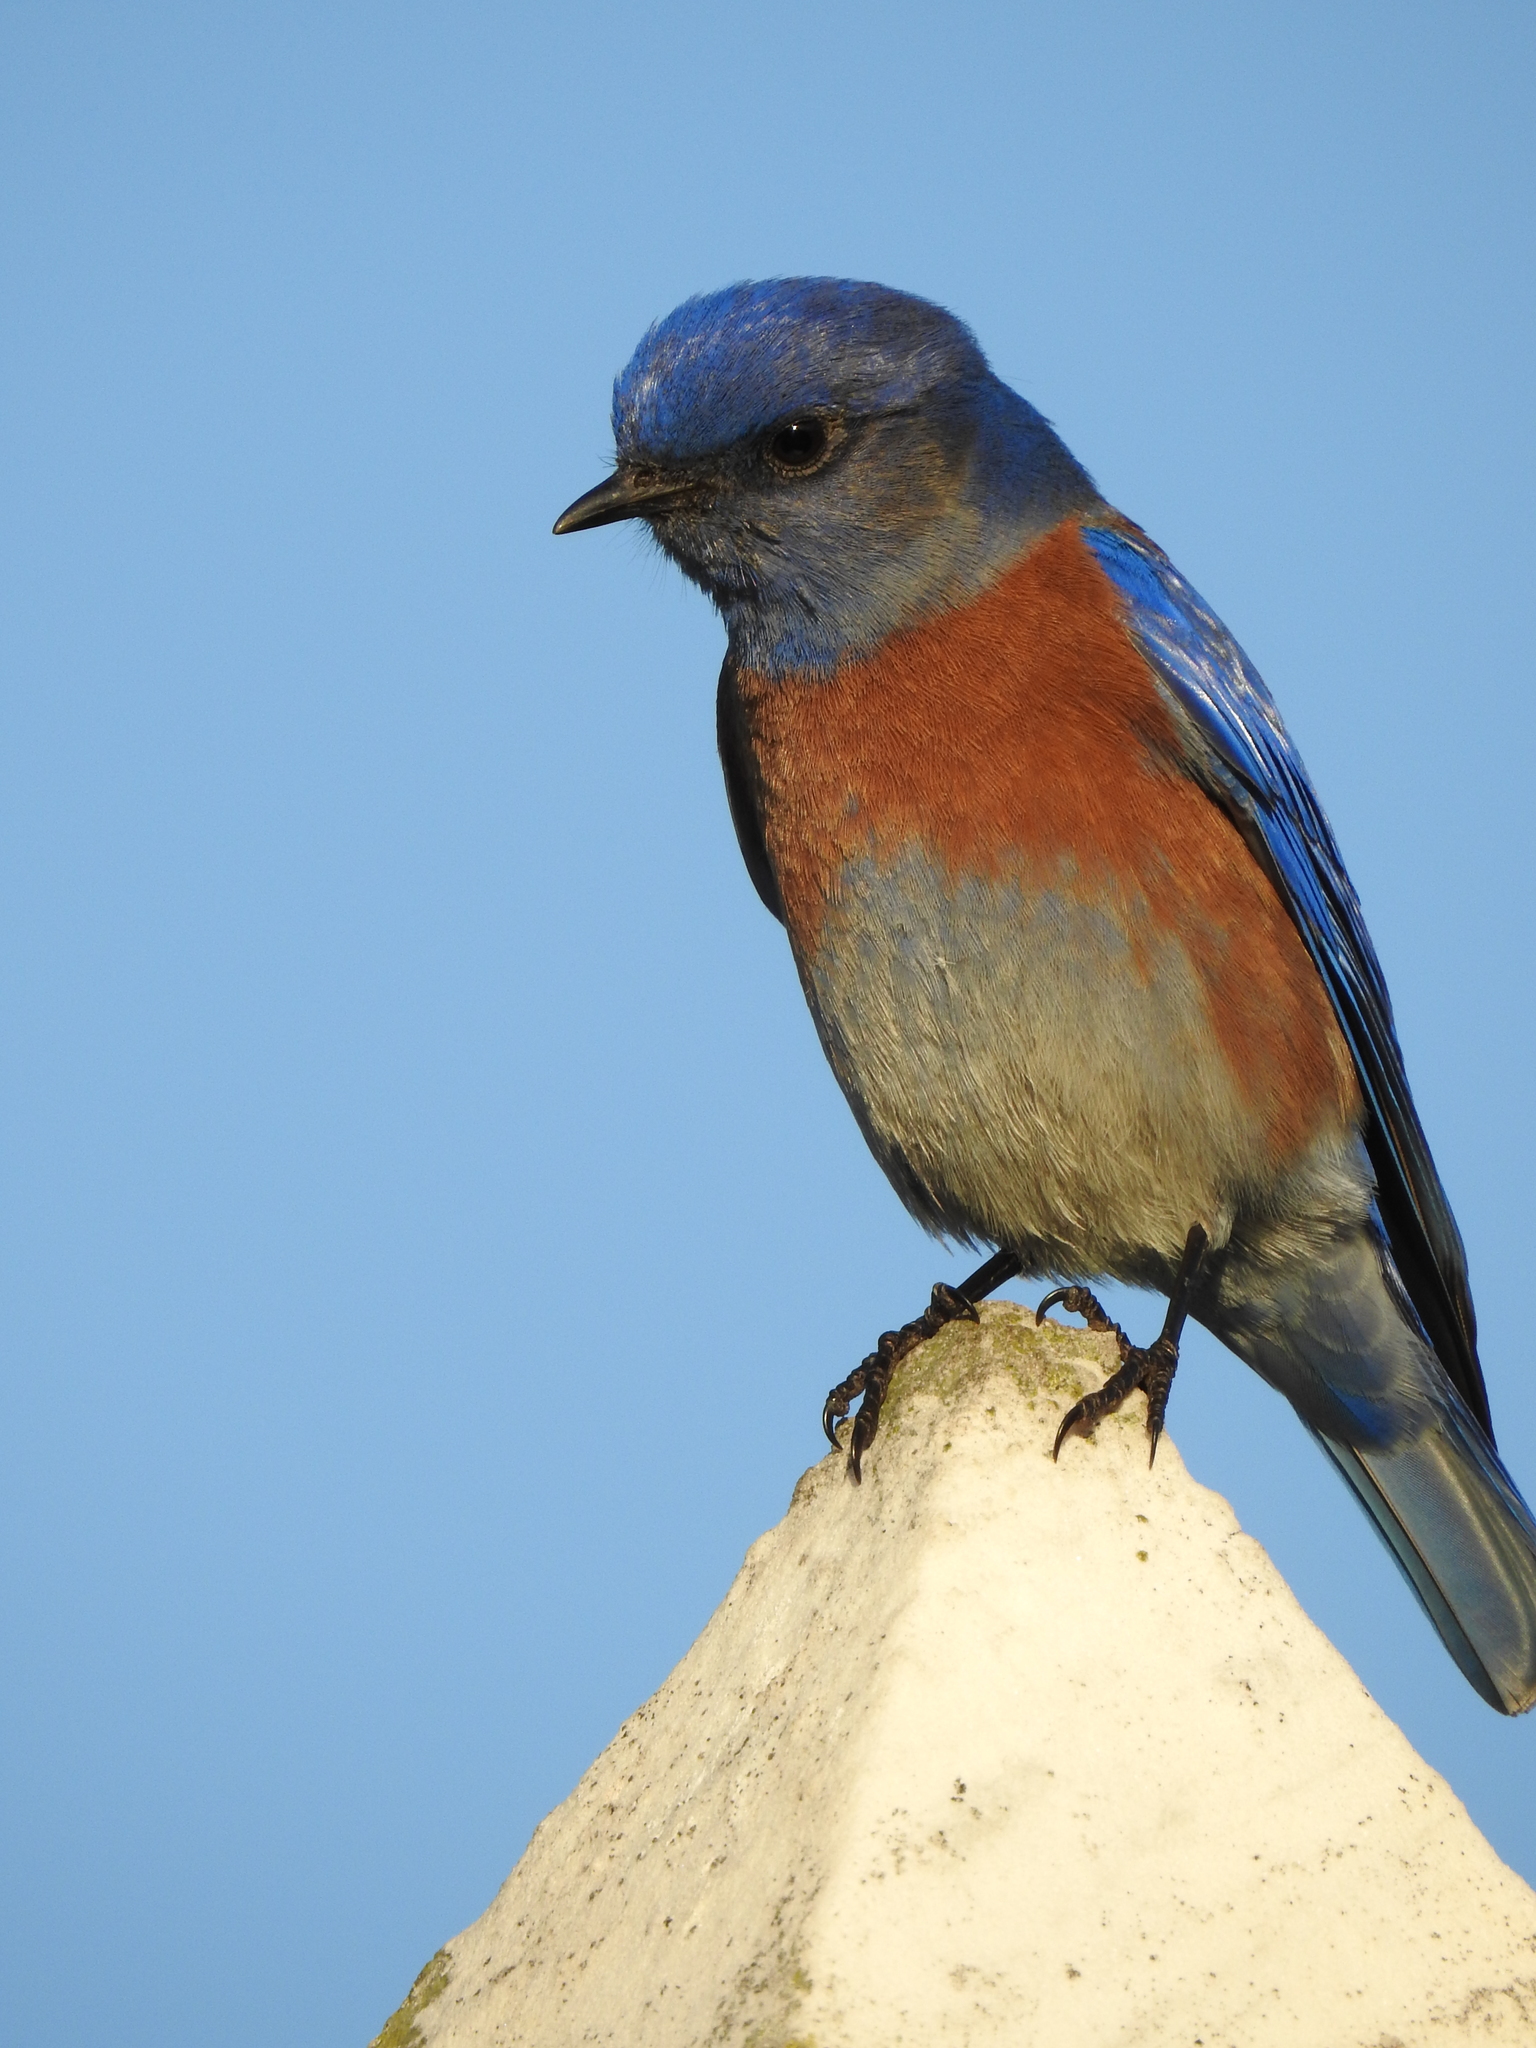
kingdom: Animalia
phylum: Chordata
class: Aves
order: Passeriformes
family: Turdidae
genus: Sialia
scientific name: Sialia mexicana
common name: Western bluebird
